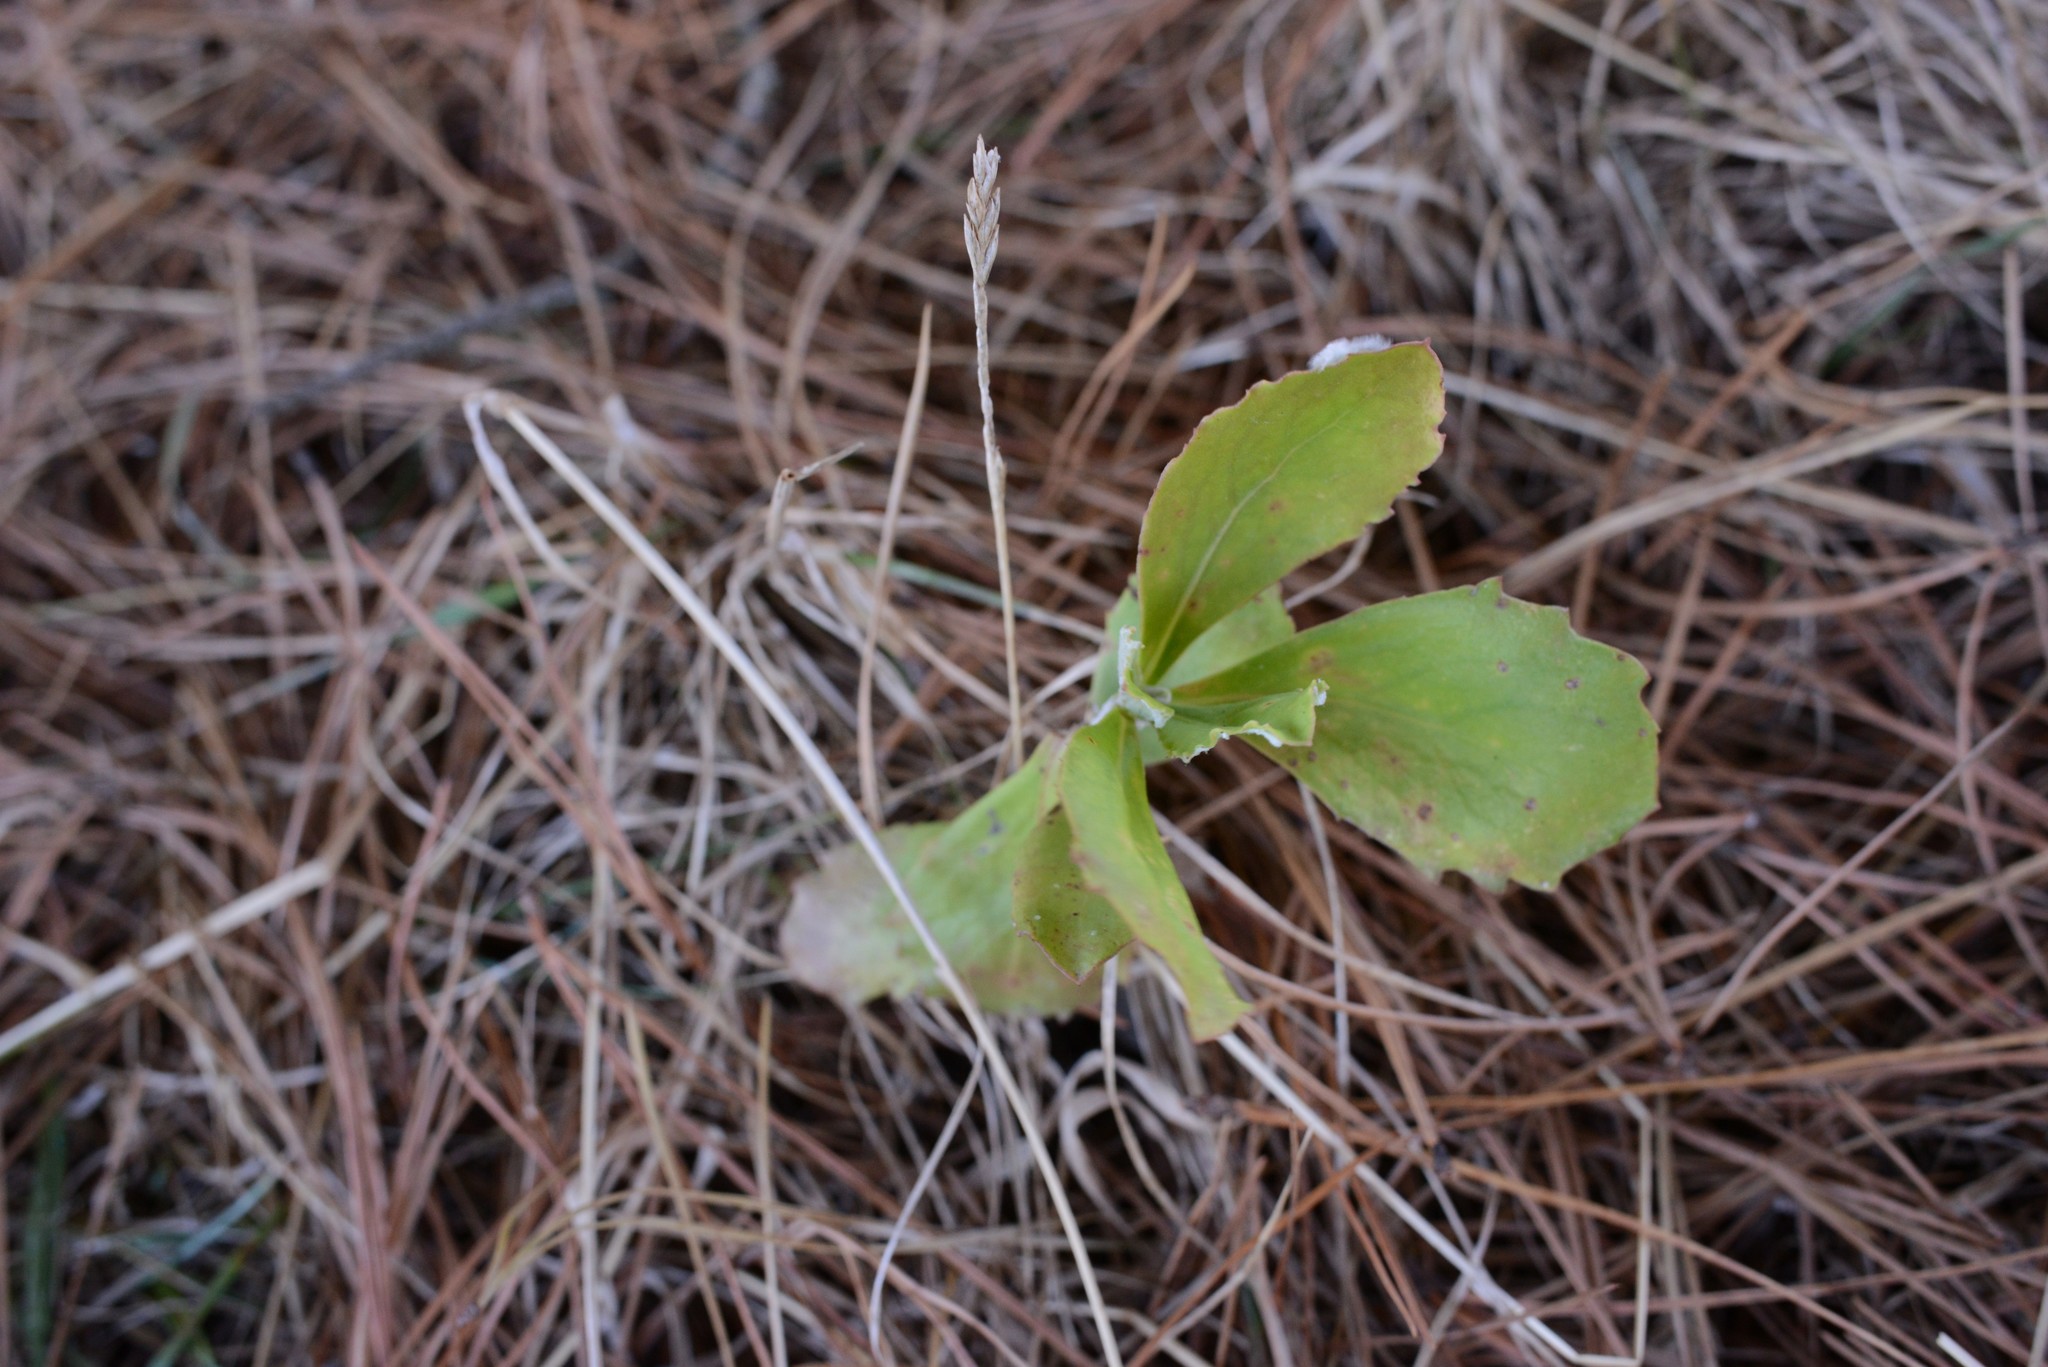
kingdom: Plantae
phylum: Tracheophyta
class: Magnoliopsida
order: Asterales
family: Asteraceae
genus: Osteospermum
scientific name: Osteospermum moniliferum
